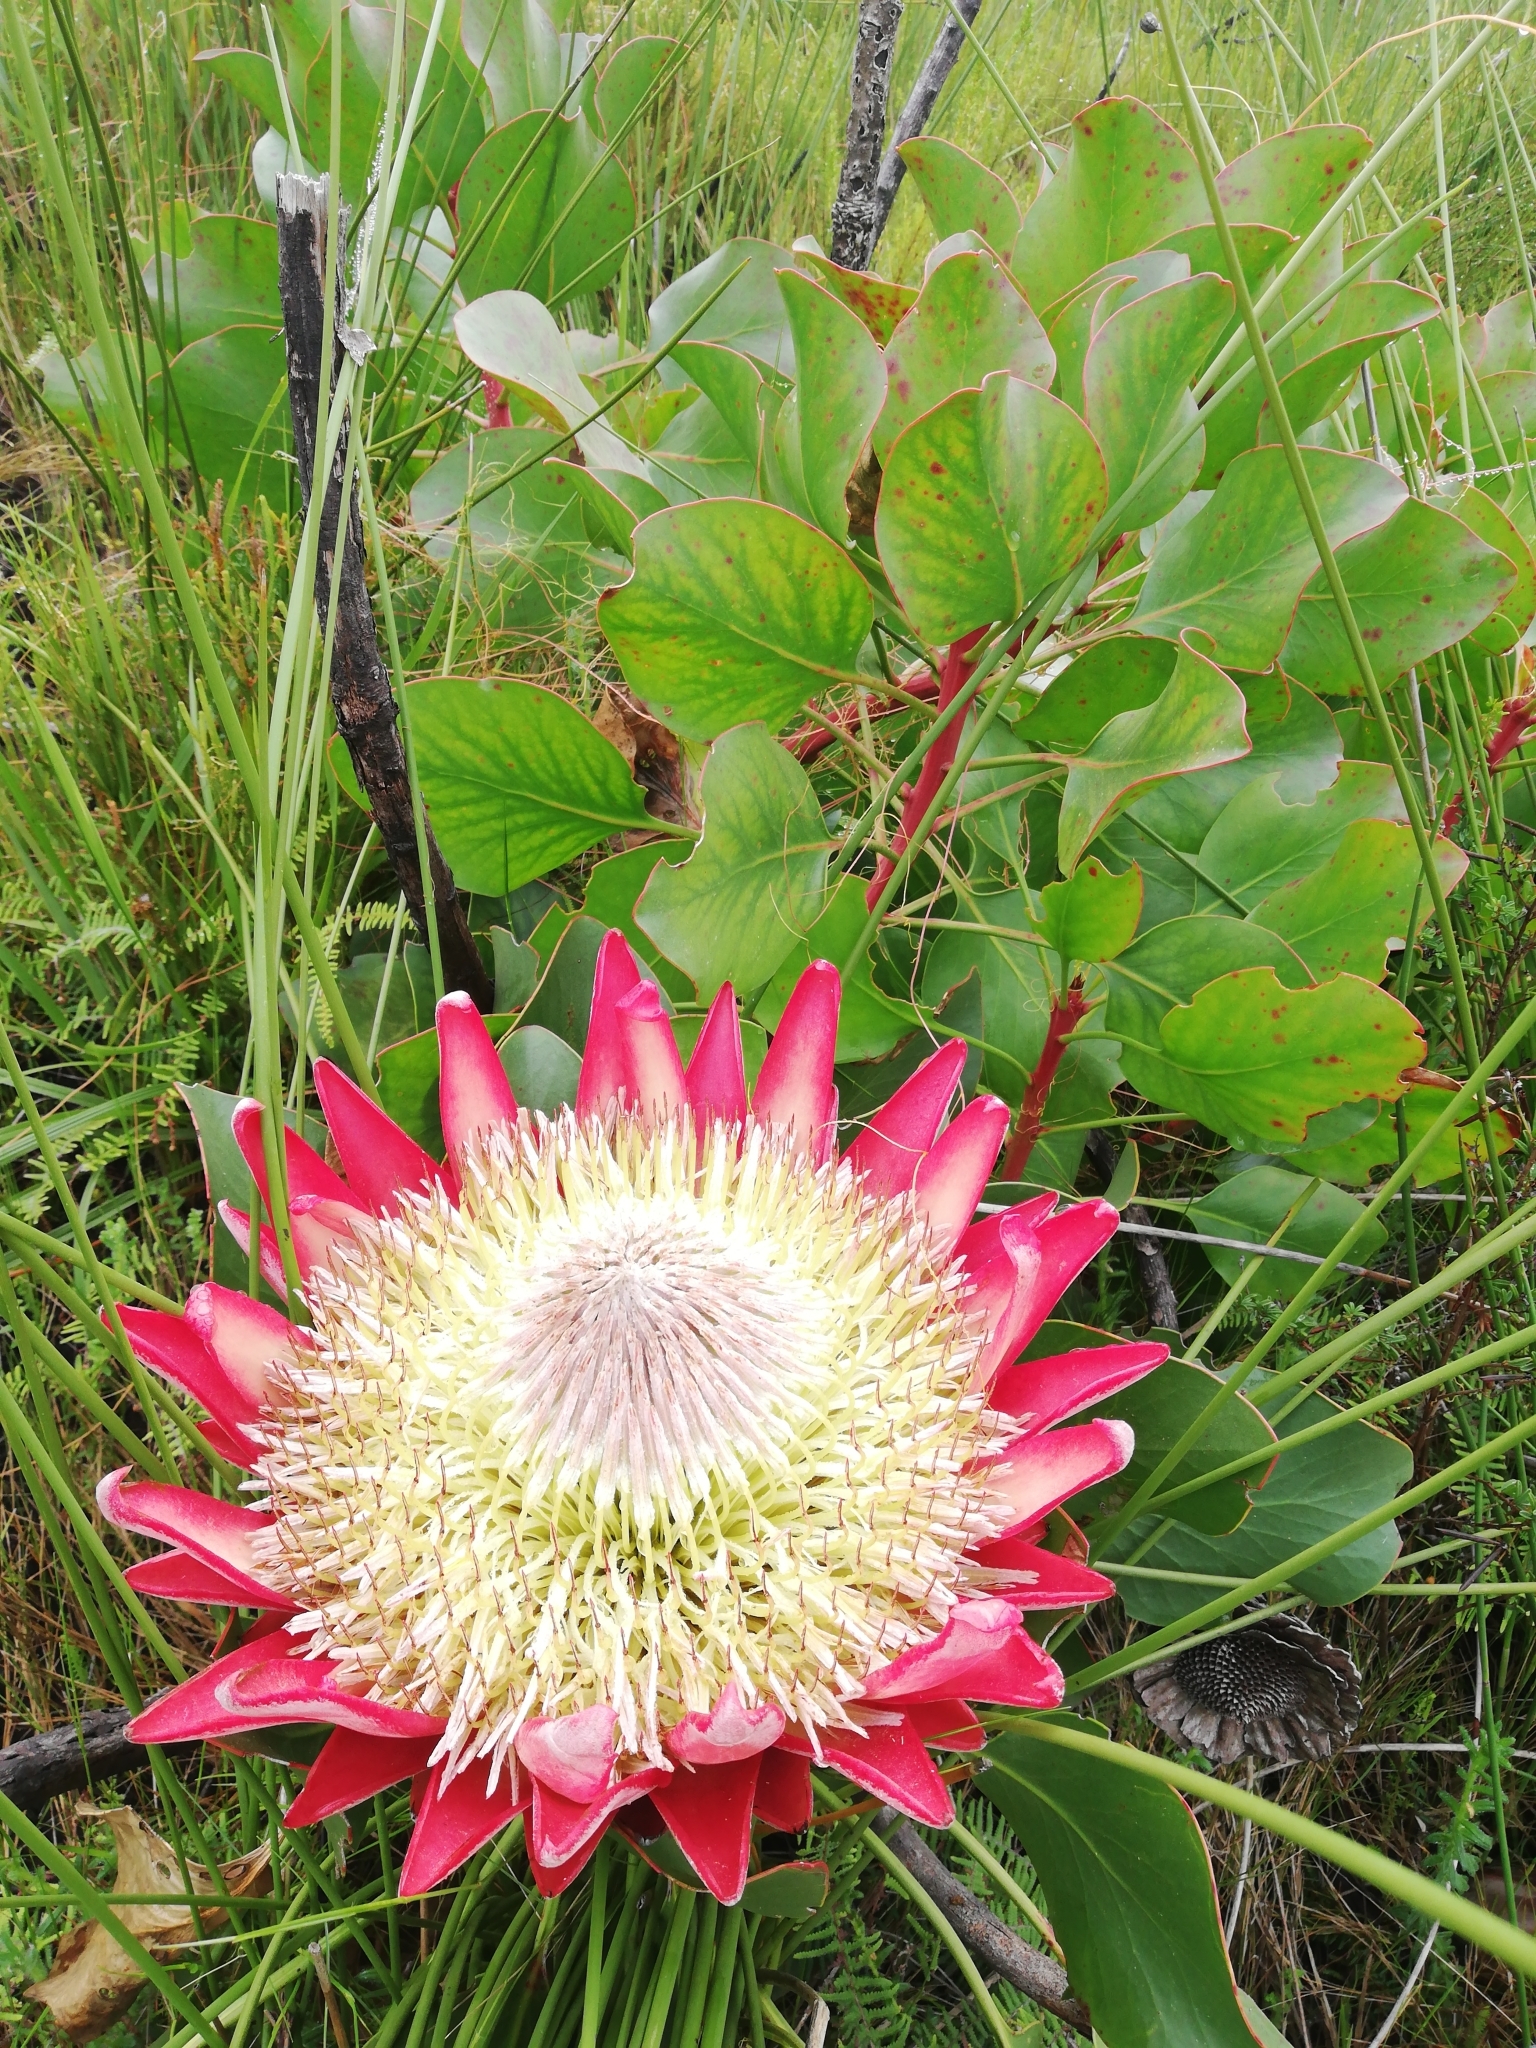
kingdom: Plantae
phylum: Tracheophyta
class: Magnoliopsida
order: Proteales
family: Proteaceae
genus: Protea
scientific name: Protea cynaroides
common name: King protea
